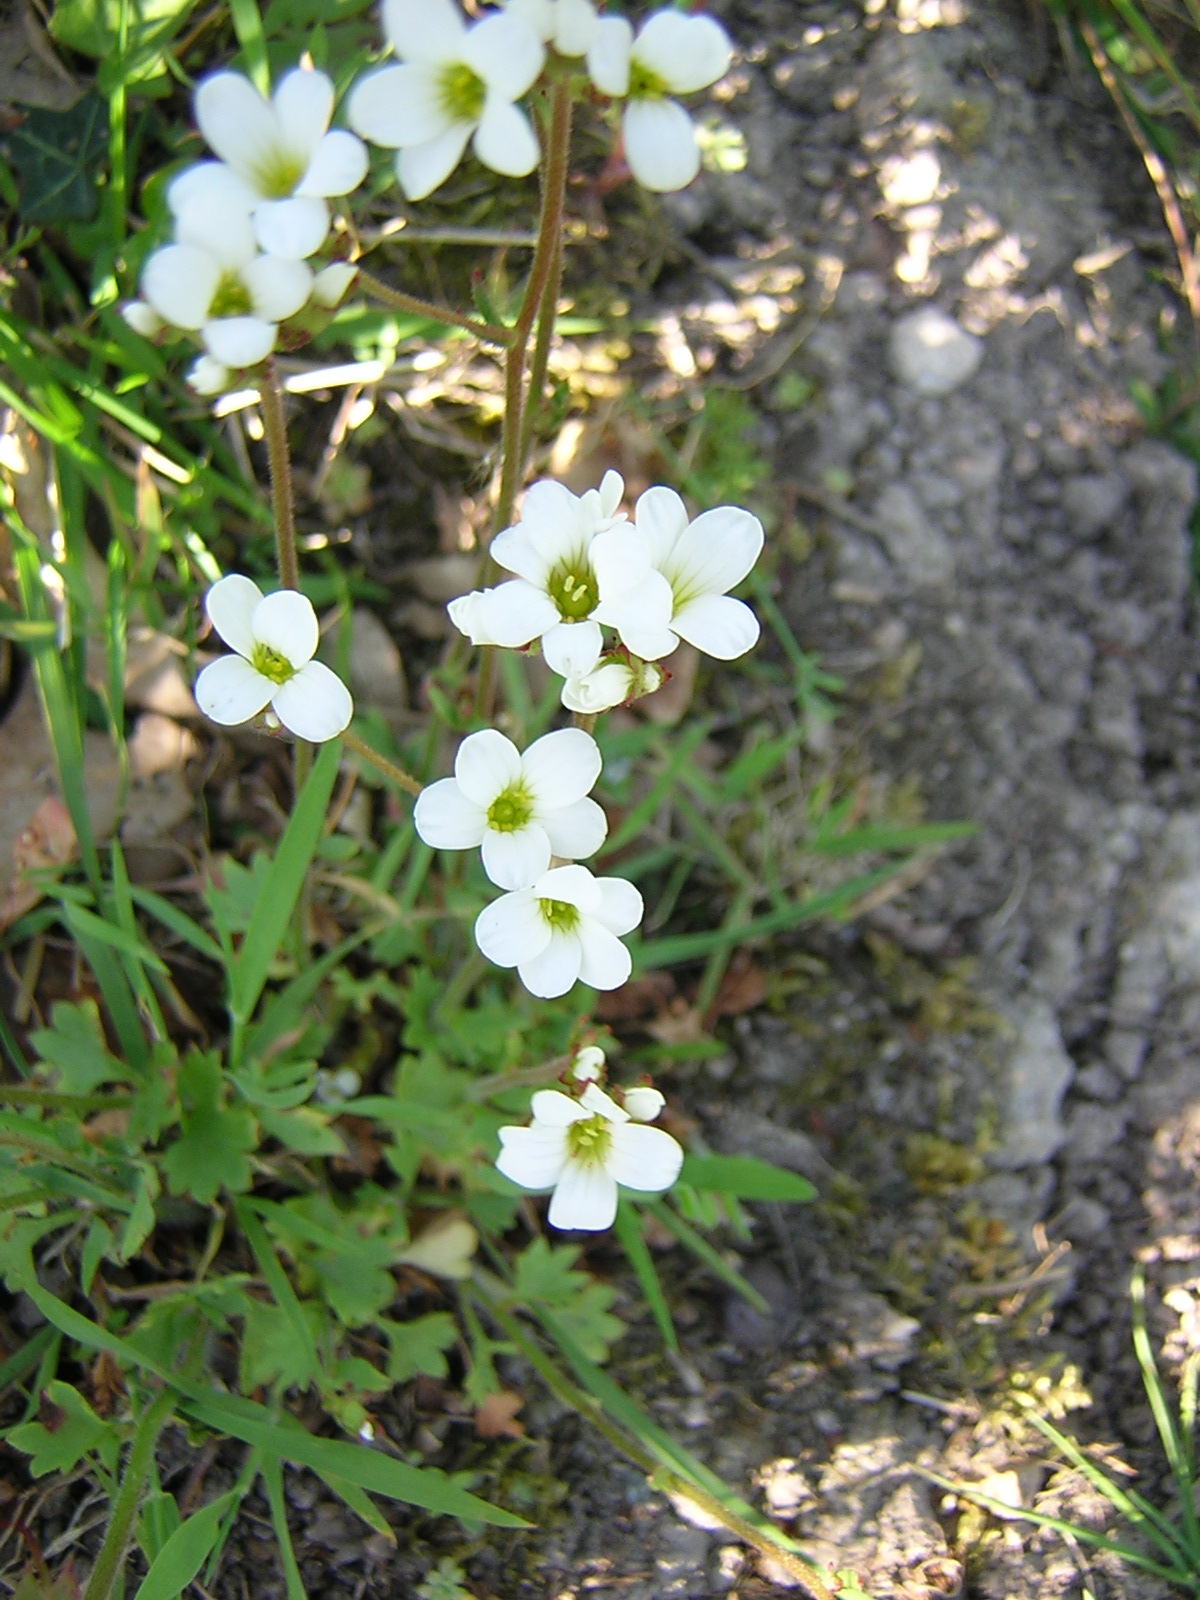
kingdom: Plantae
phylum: Tracheophyta
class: Magnoliopsida
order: Saxifragales
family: Saxifragaceae
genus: Saxifraga
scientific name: Saxifraga granulata
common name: Meadow saxifrage
